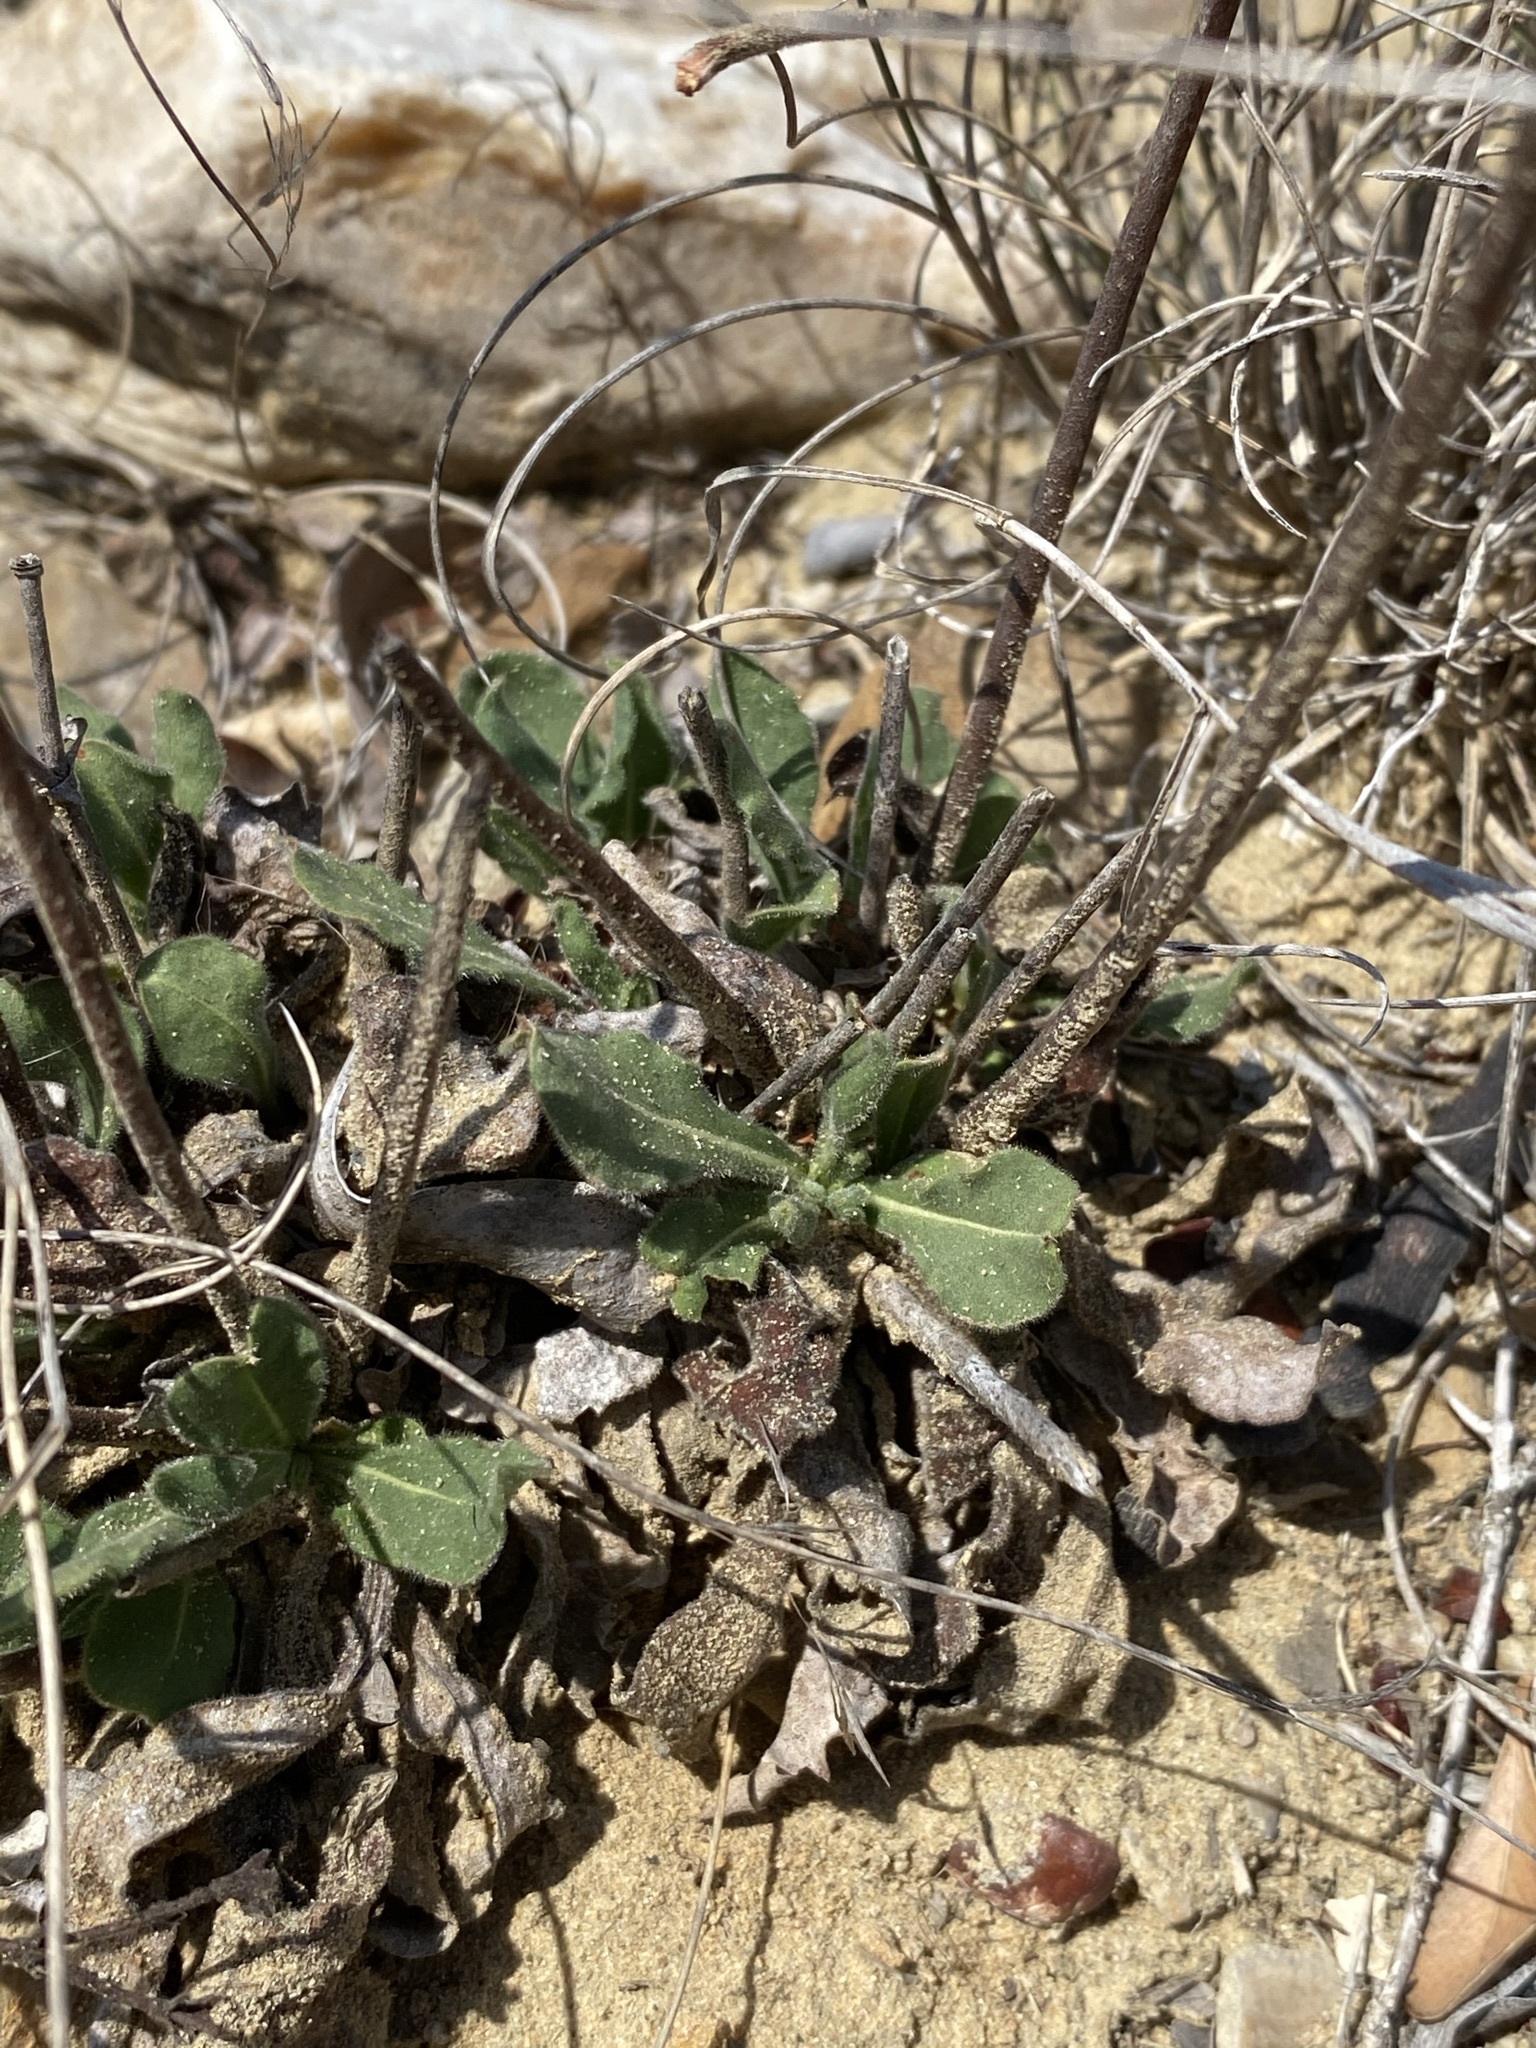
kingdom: Plantae
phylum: Tracheophyta
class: Magnoliopsida
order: Caryophyllales
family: Polygonaceae
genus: Eriogonum
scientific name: Eriogonum greggii
